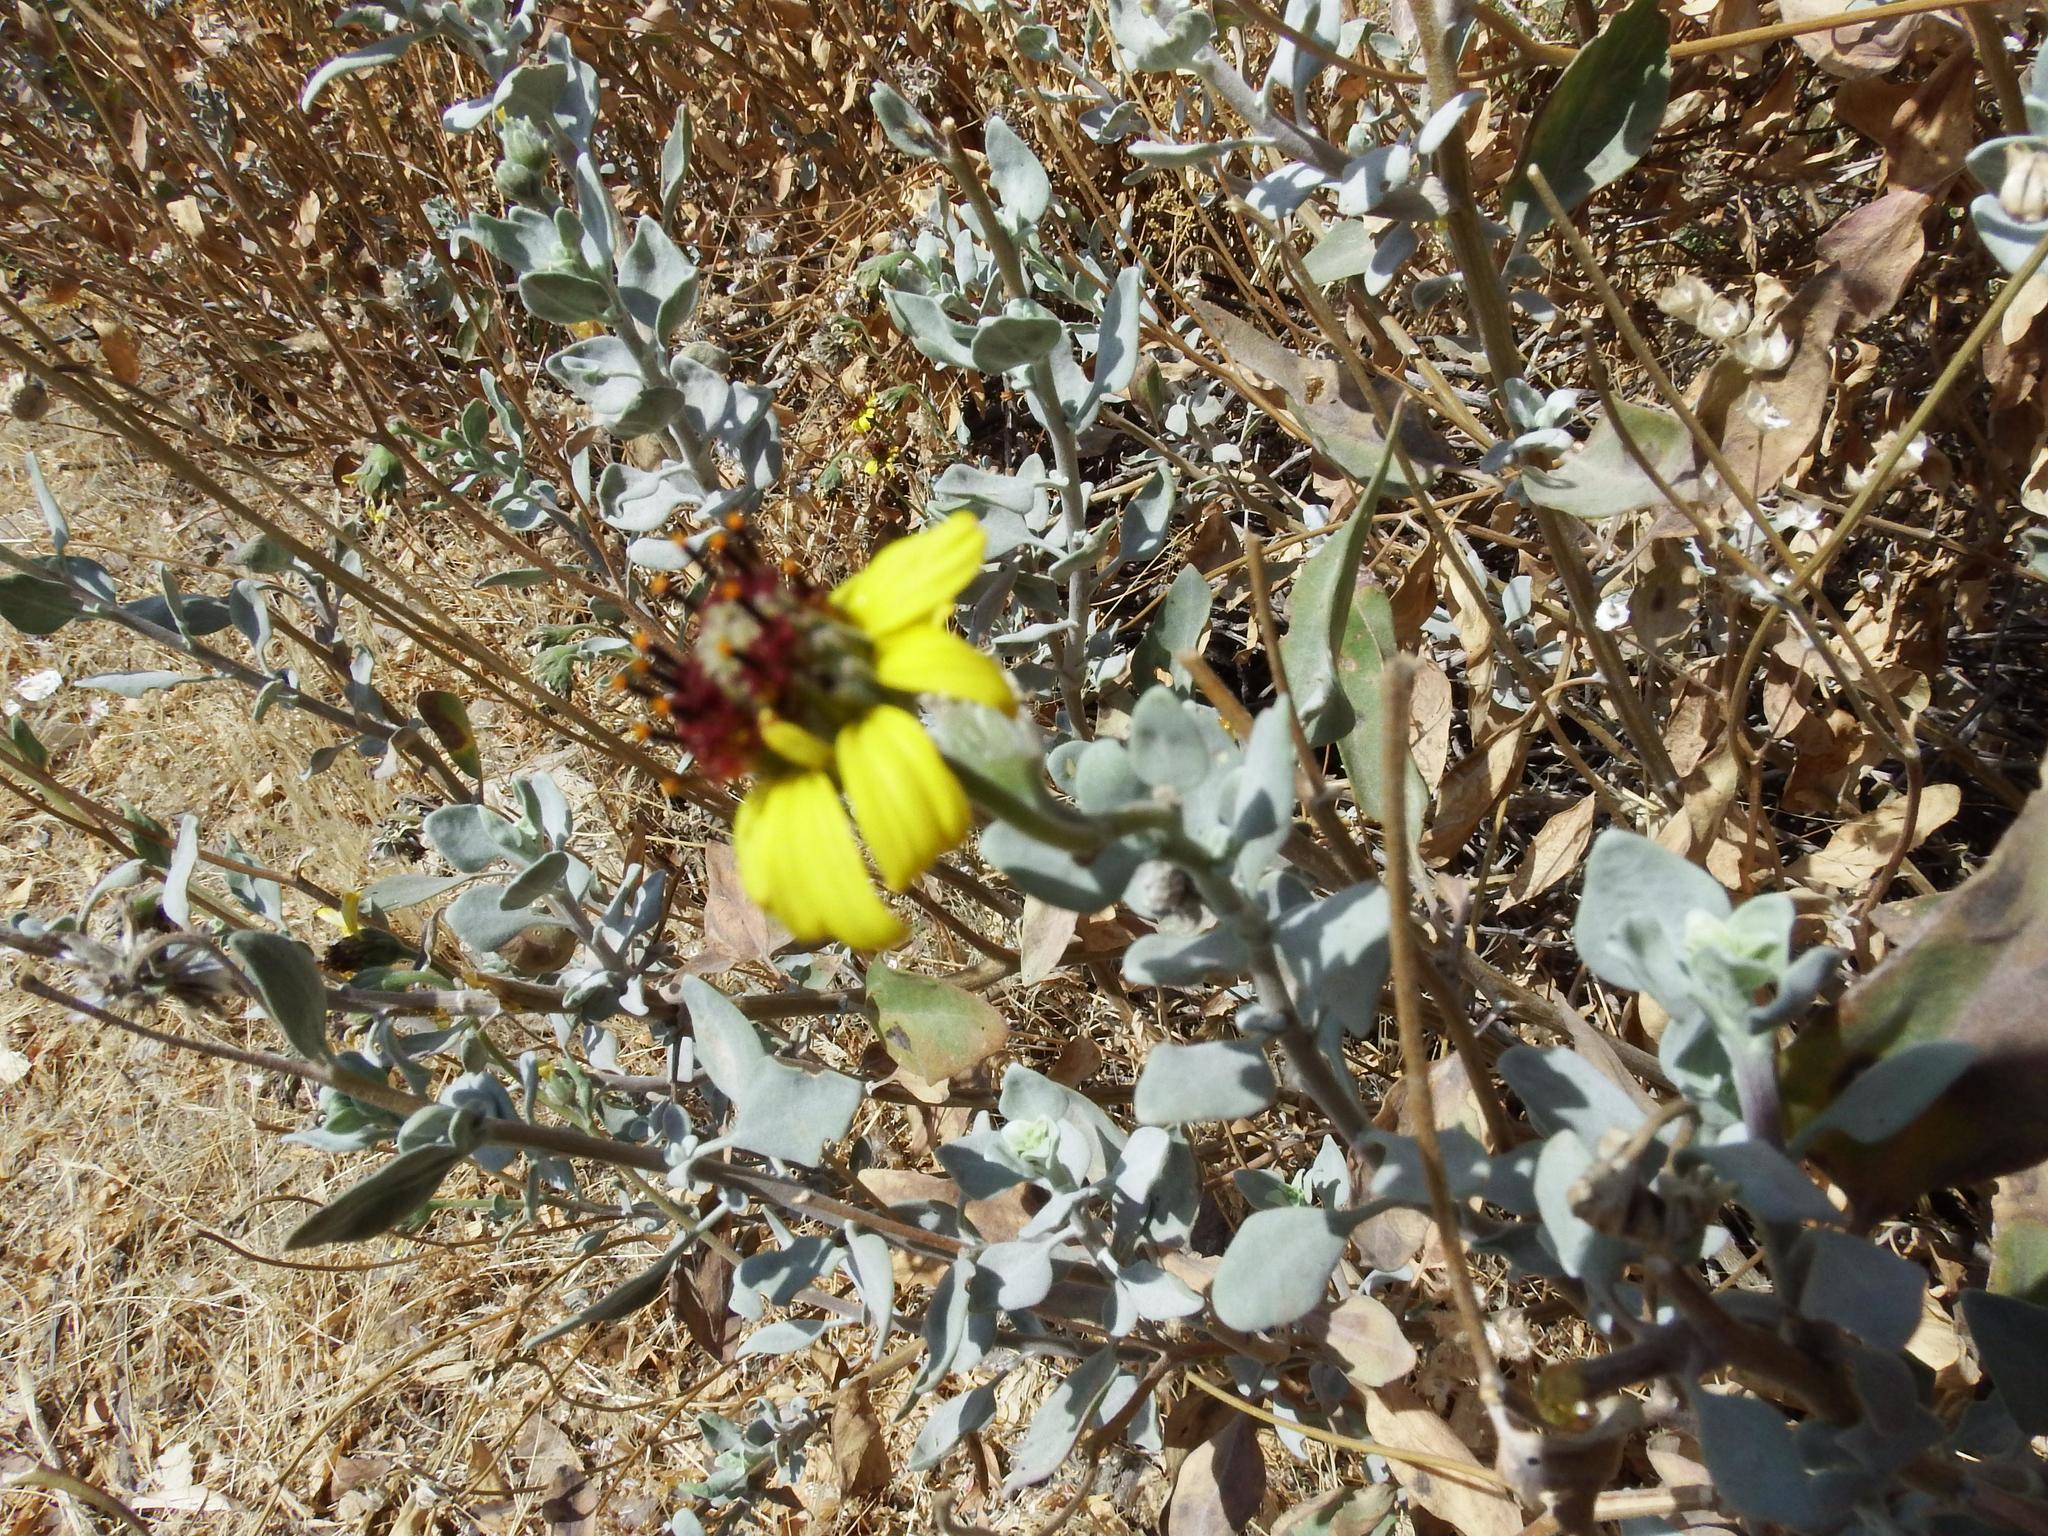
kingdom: Plantae
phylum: Tracheophyta
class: Magnoliopsida
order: Asterales
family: Asteraceae
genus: Encelia
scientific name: Encelia canescens
